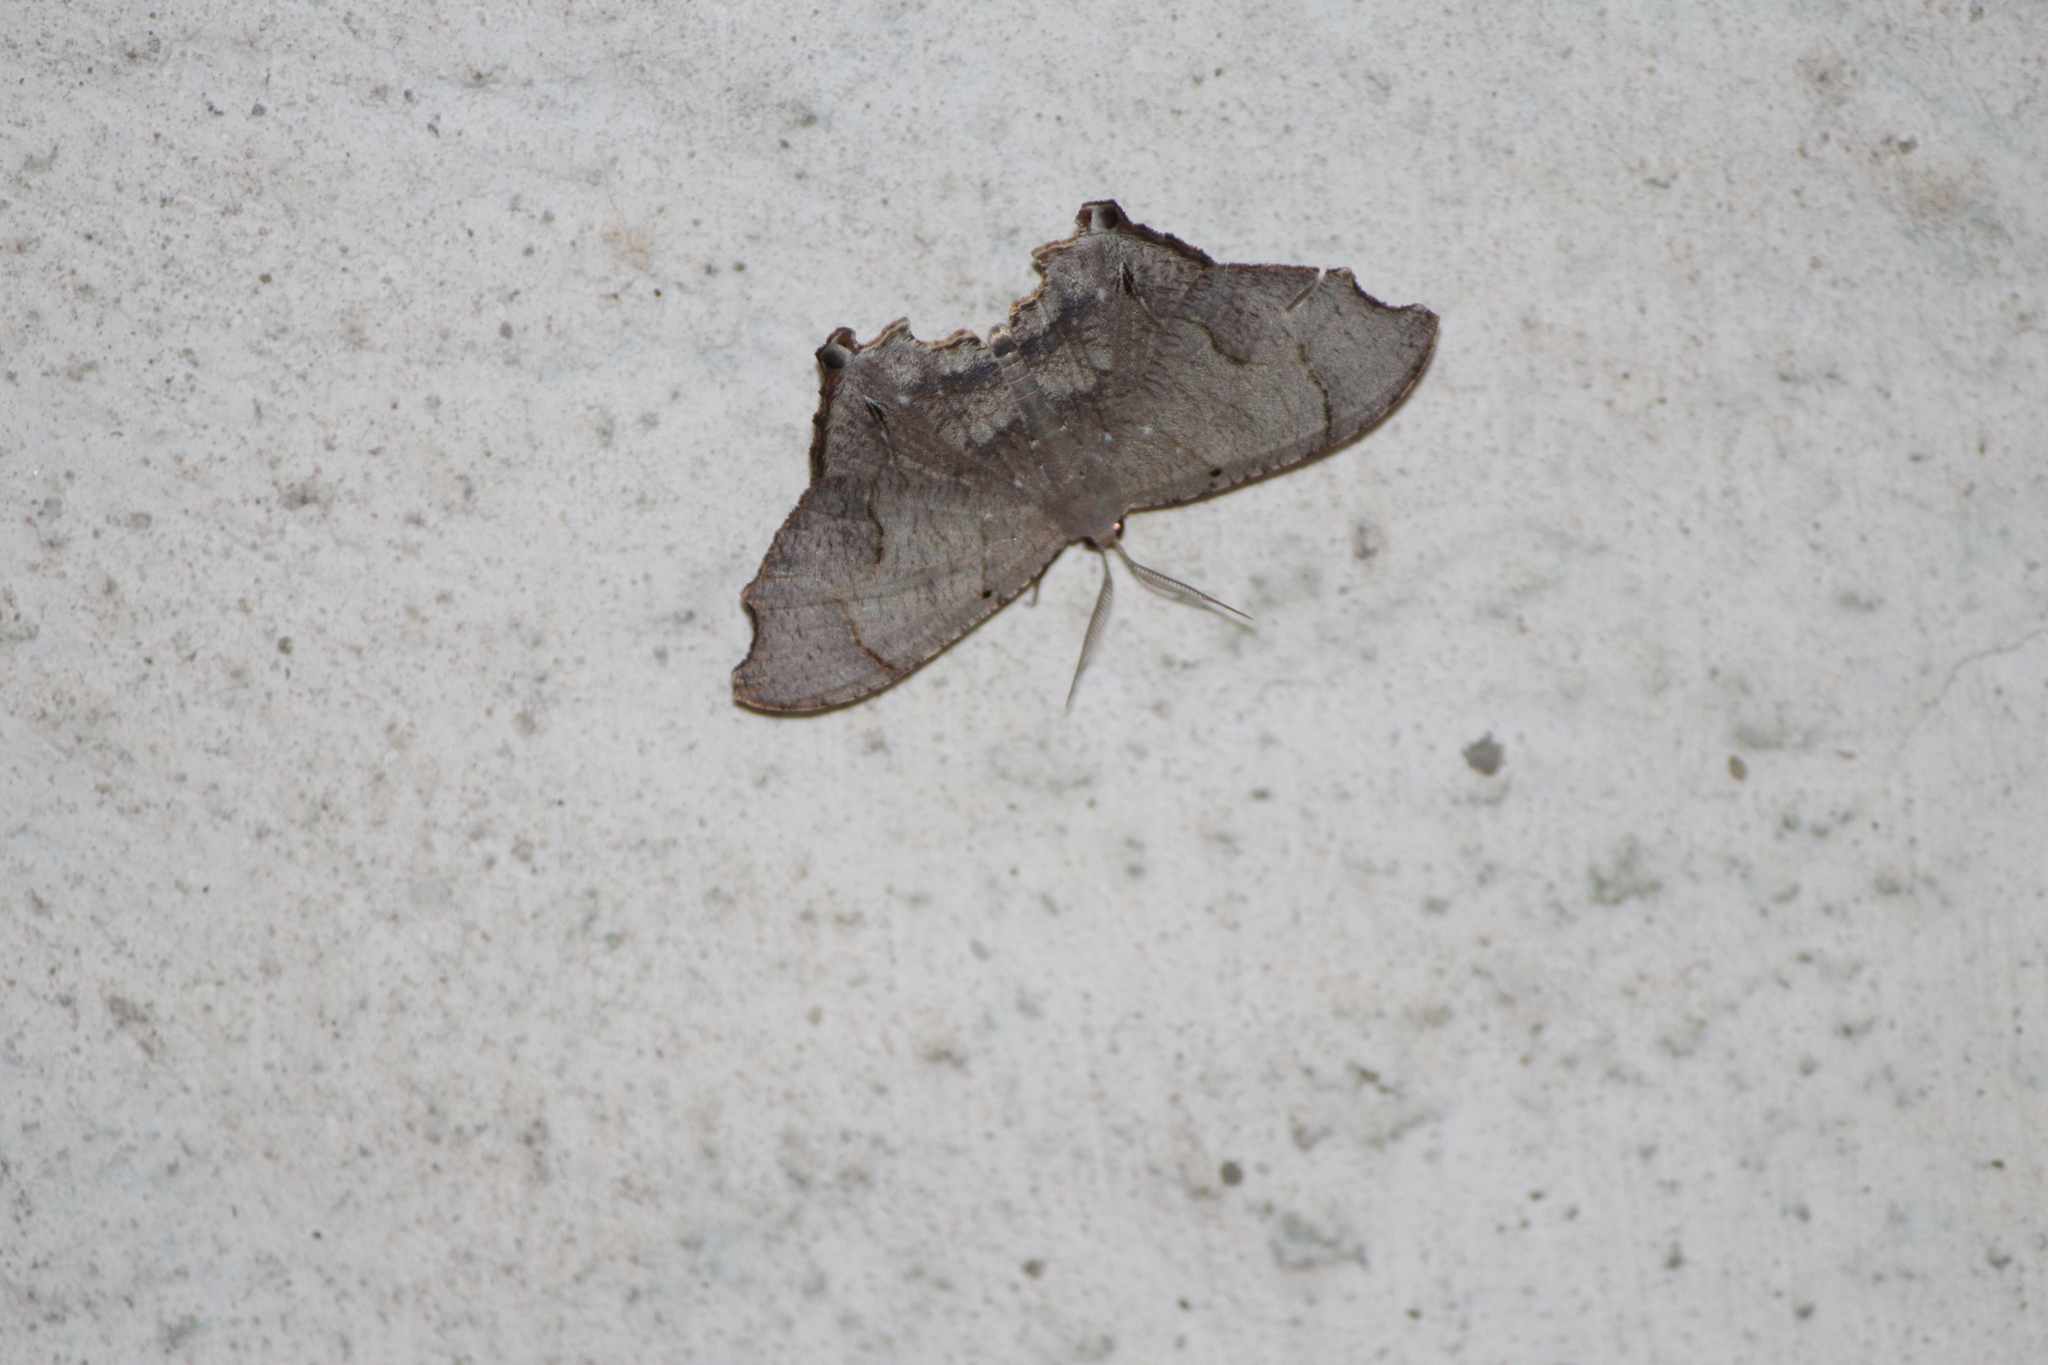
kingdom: Animalia
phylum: Arthropoda
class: Insecta
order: Lepidoptera
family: Uraniidae
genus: Trotorhombia
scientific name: Trotorhombia metachromata
